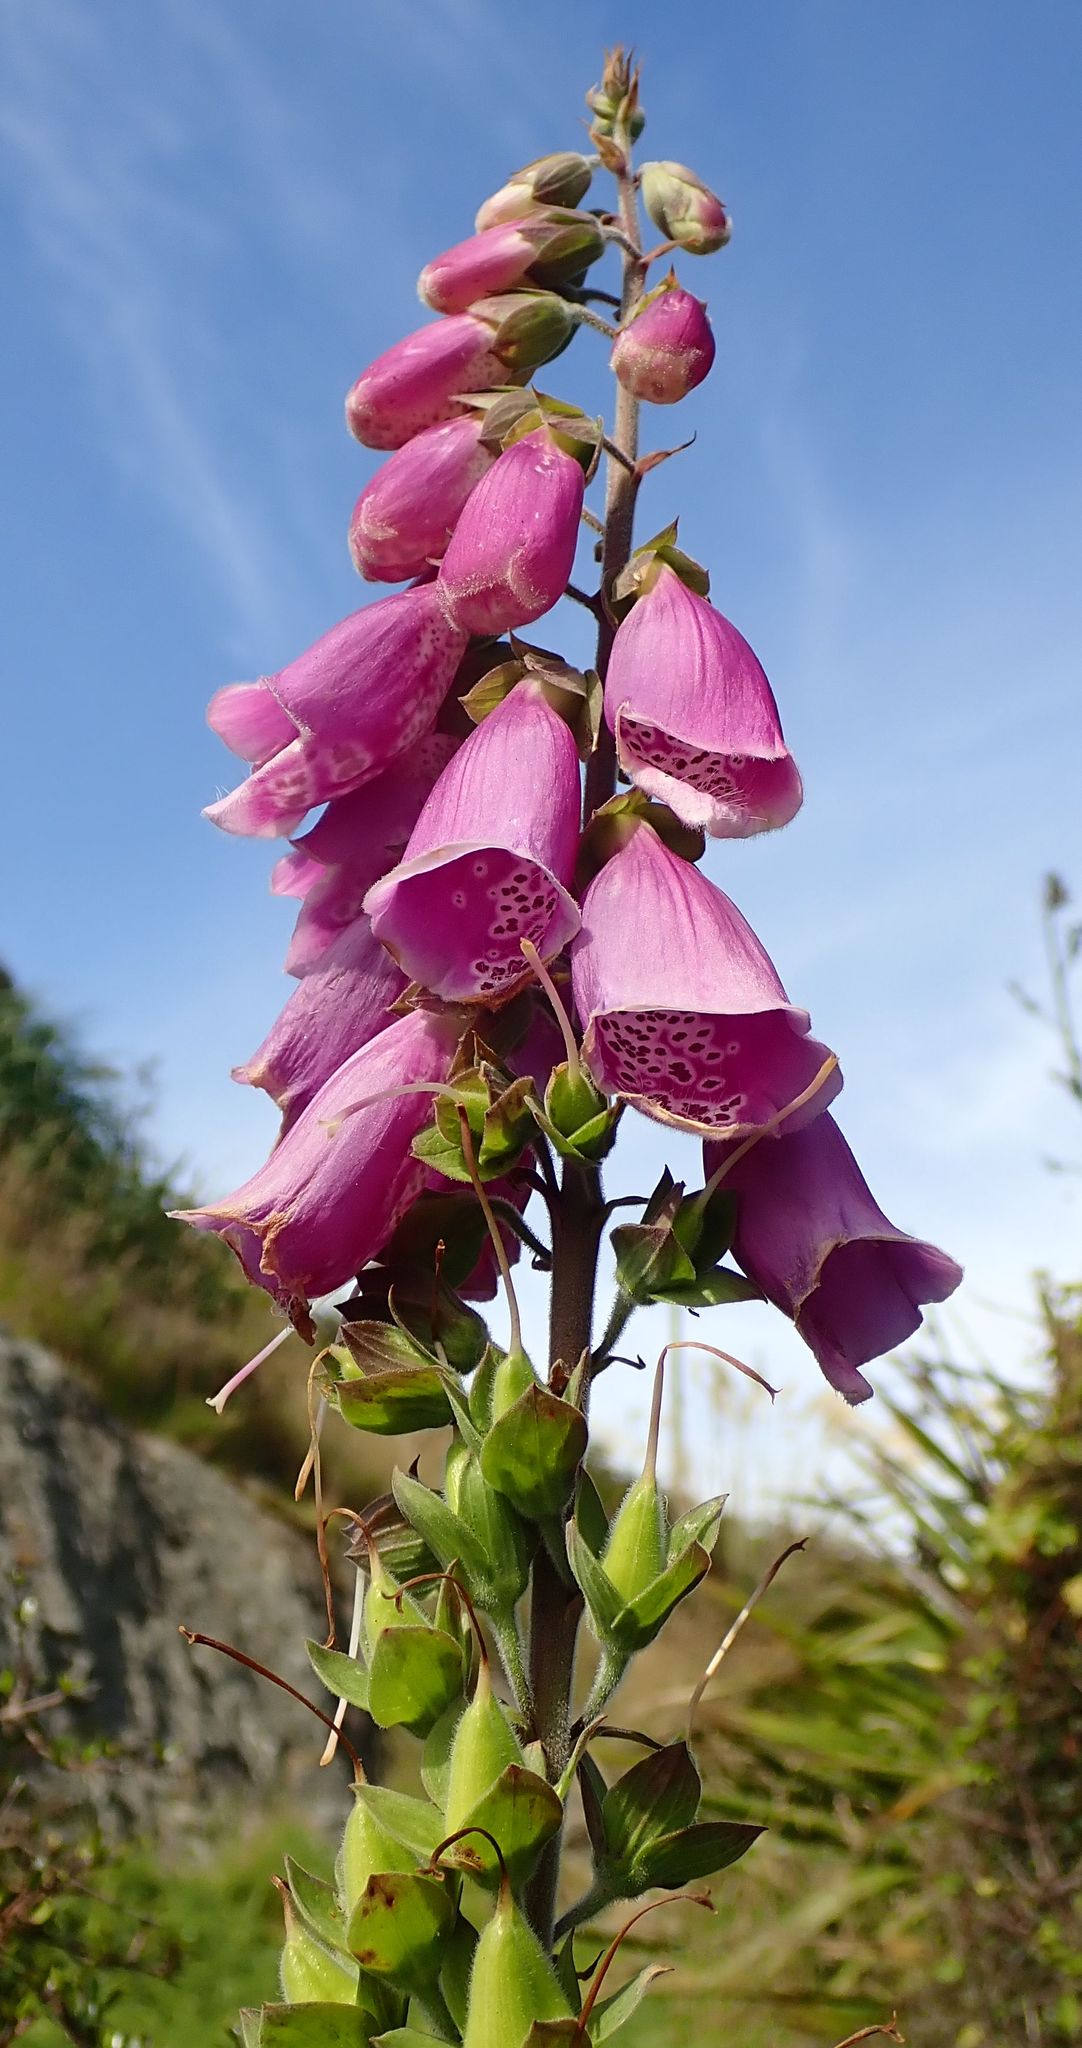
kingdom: Plantae
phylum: Tracheophyta
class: Magnoliopsida
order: Lamiales
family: Plantaginaceae
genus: Digitalis
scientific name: Digitalis purpurea
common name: Foxglove
